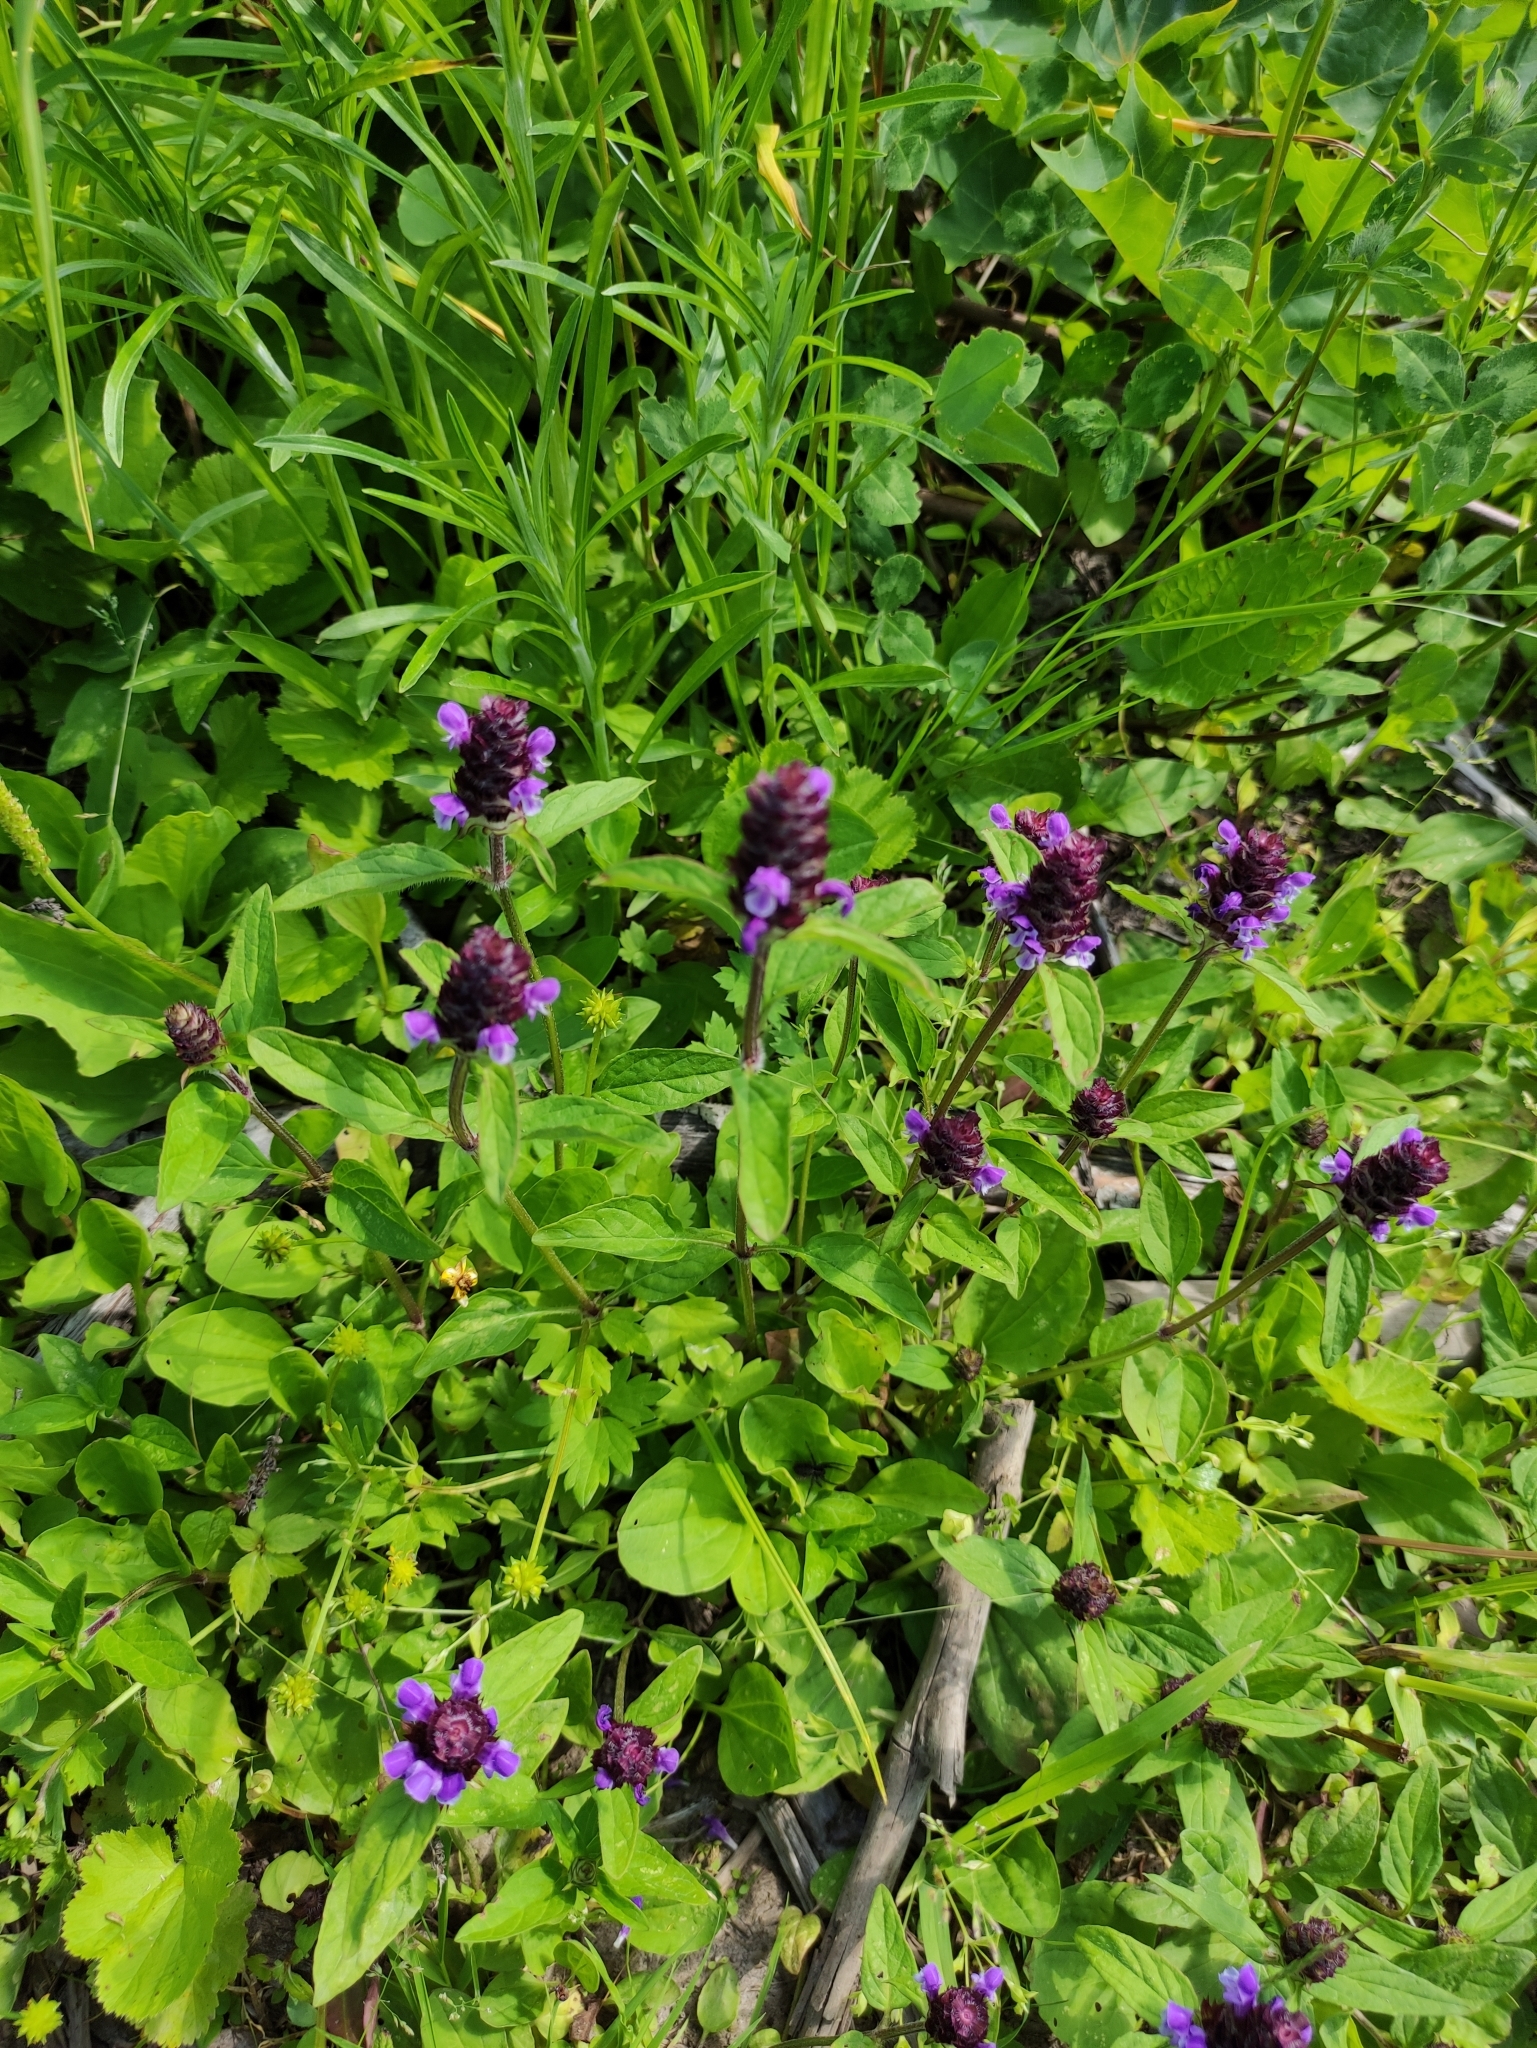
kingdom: Plantae
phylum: Tracheophyta
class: Magnoliopsida
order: Lamiales
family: Lamiaceae
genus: Prunella
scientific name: Prunella vulgaris
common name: Heal-all
